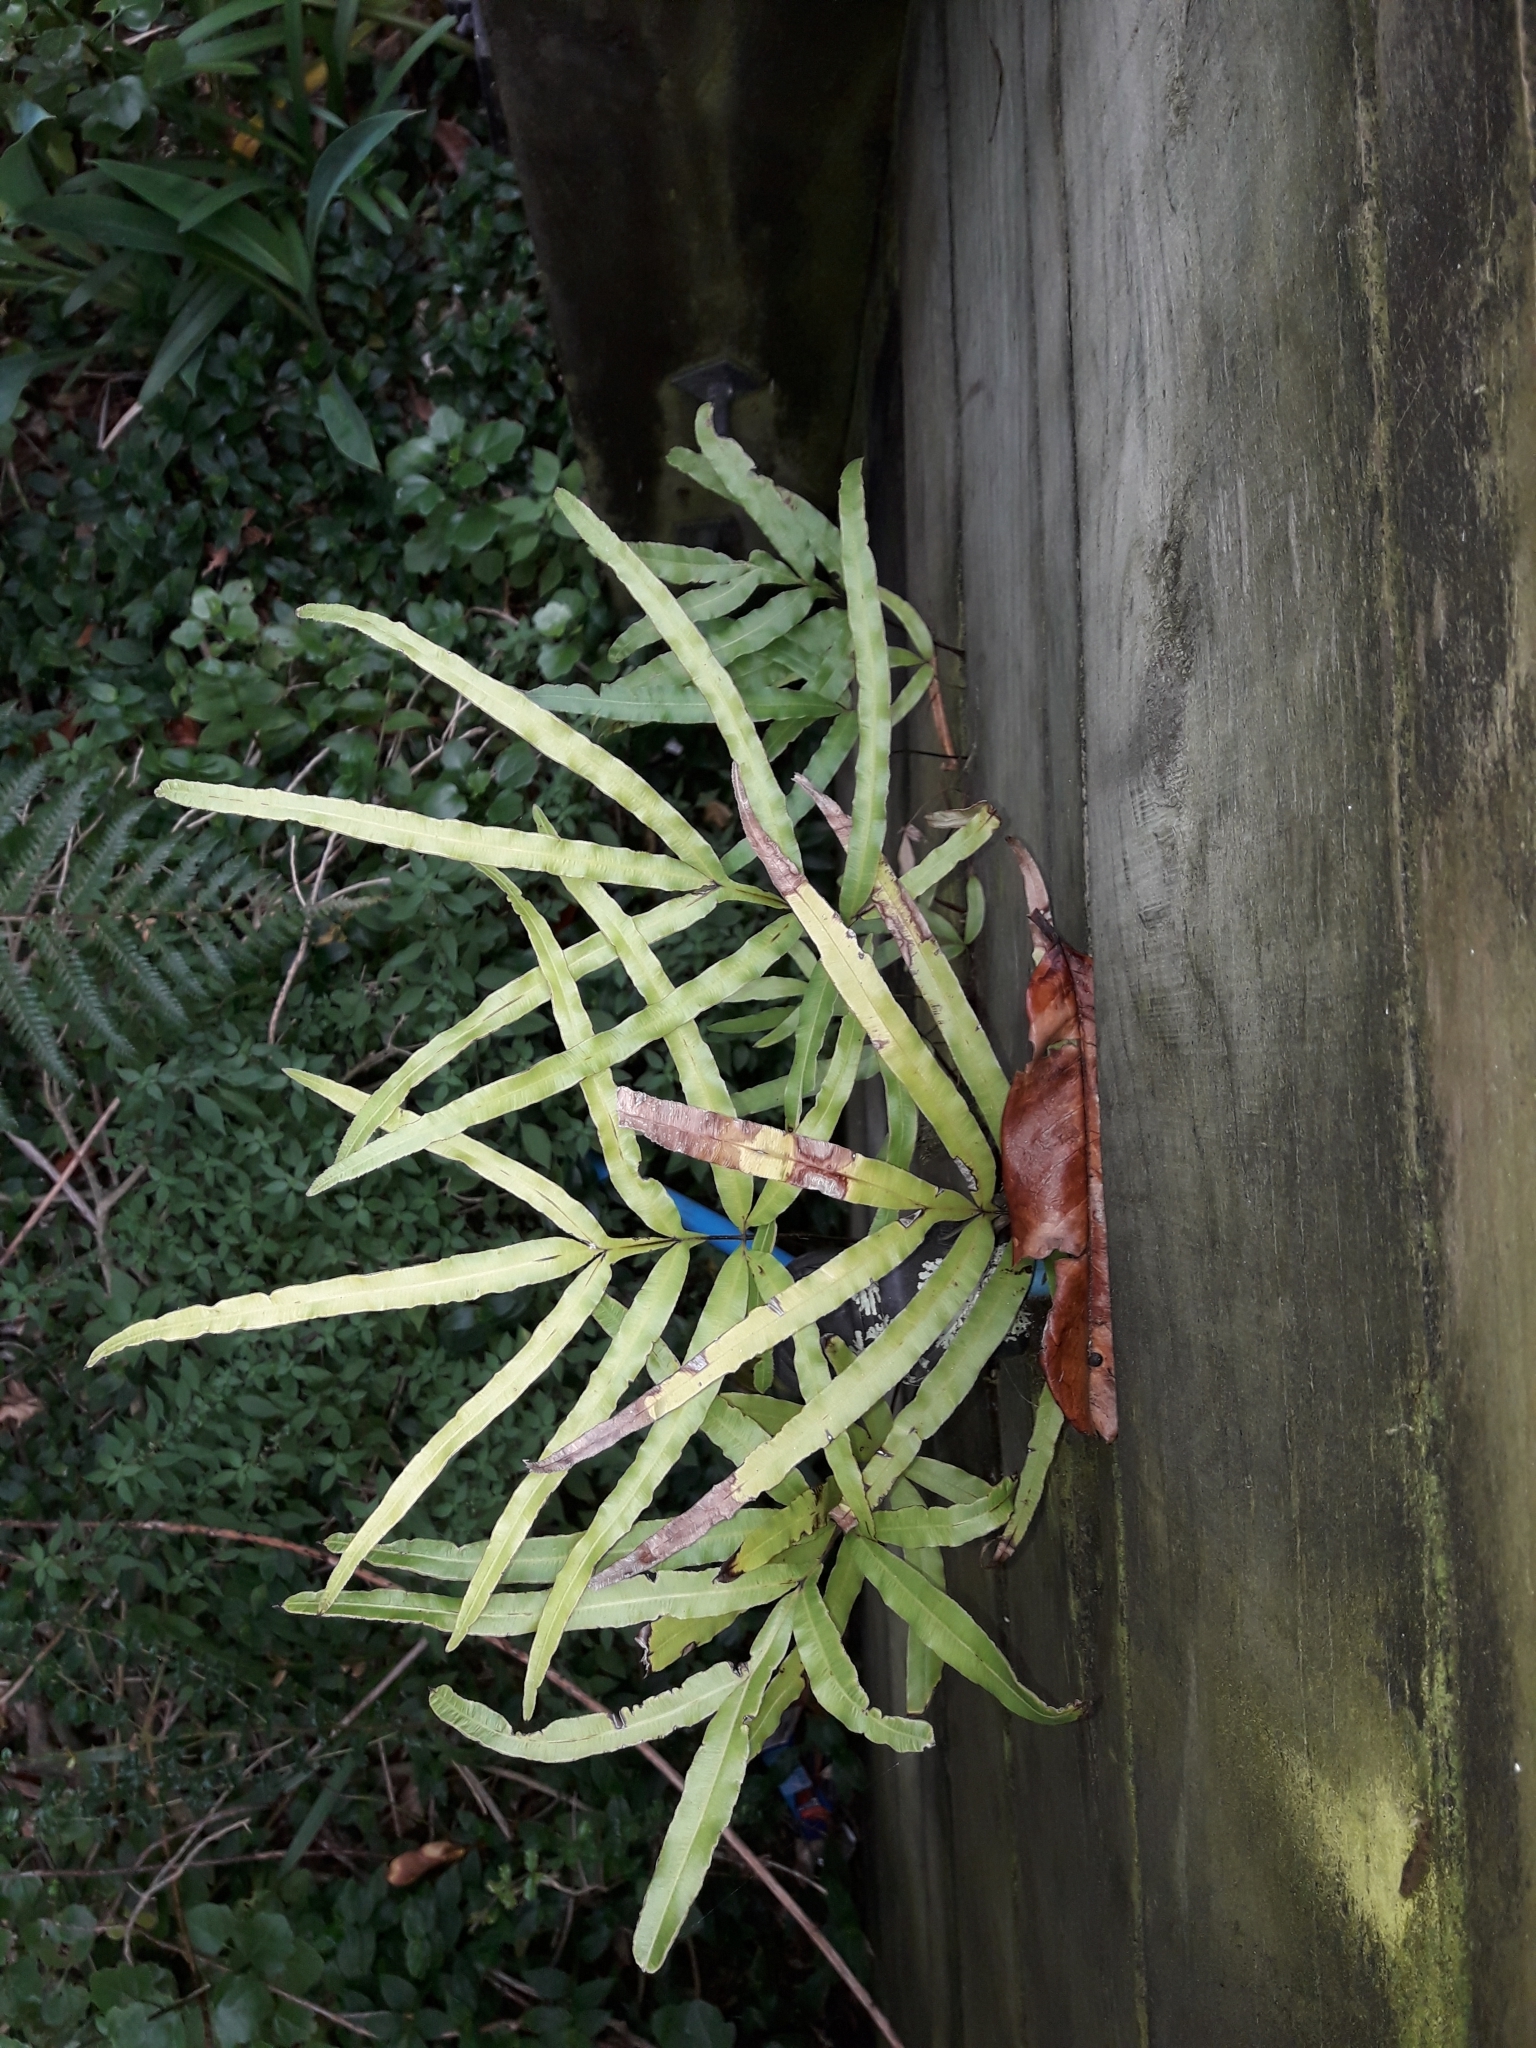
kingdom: Plantae
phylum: Tracheophyta
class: Polypodiopsida
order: Polypodiales
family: Pteridaceae
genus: Pteris
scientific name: Pteris cretica
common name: Ribbon fern
